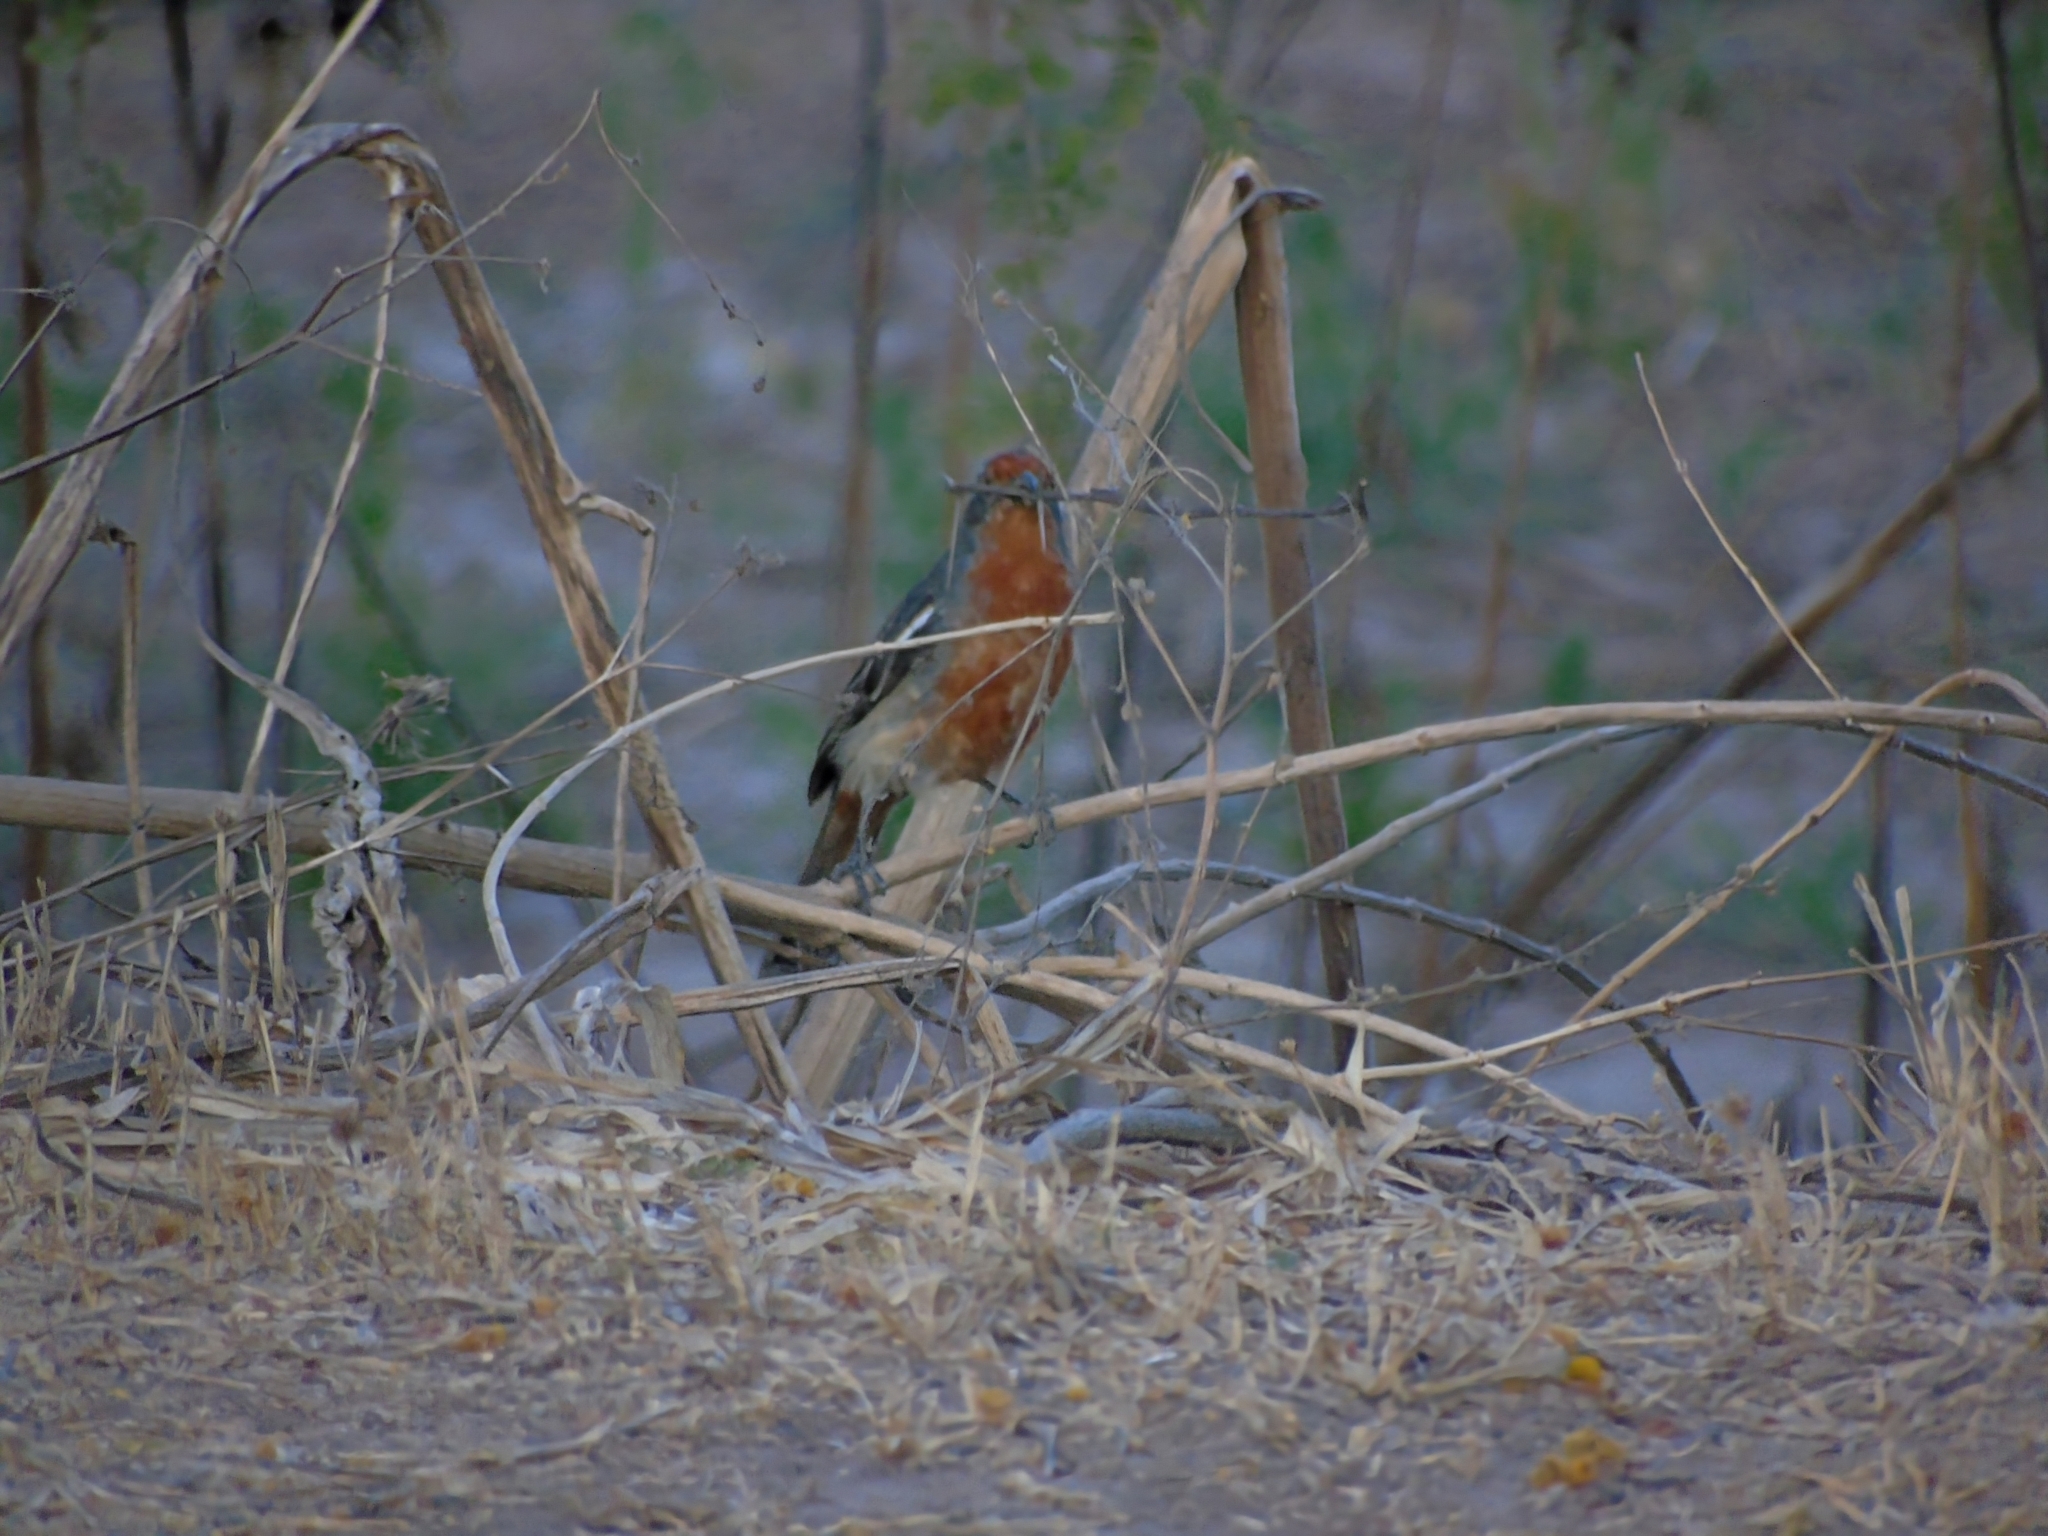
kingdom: Animalia
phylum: Chordata
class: Aves
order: Passeriformes
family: Cotingidae
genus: Phytotoma
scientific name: Phytotoma rutila
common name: White-tipped plantcutter
